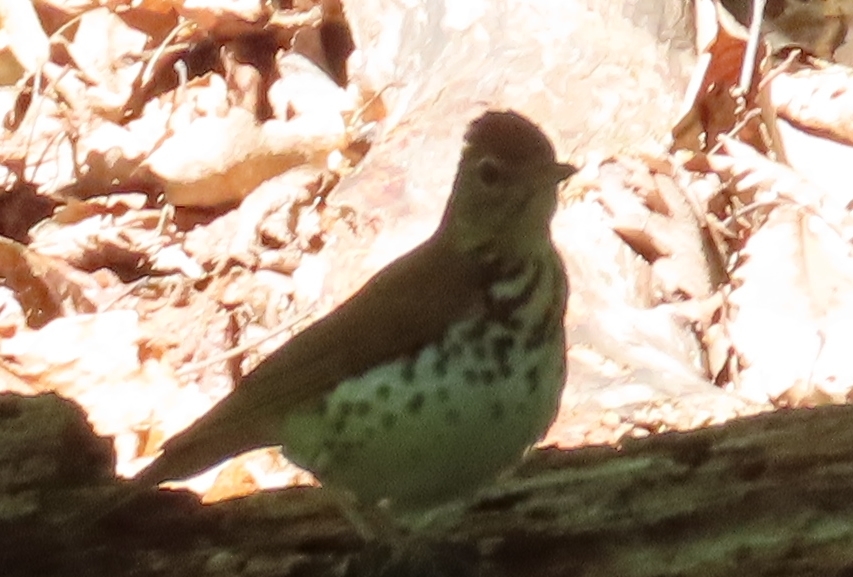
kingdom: Animalia
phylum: Chordata
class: Aves
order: Passeriformes
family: Turdidae
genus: Hylocichla
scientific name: Hylocichla mustelina
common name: Wood thrush
